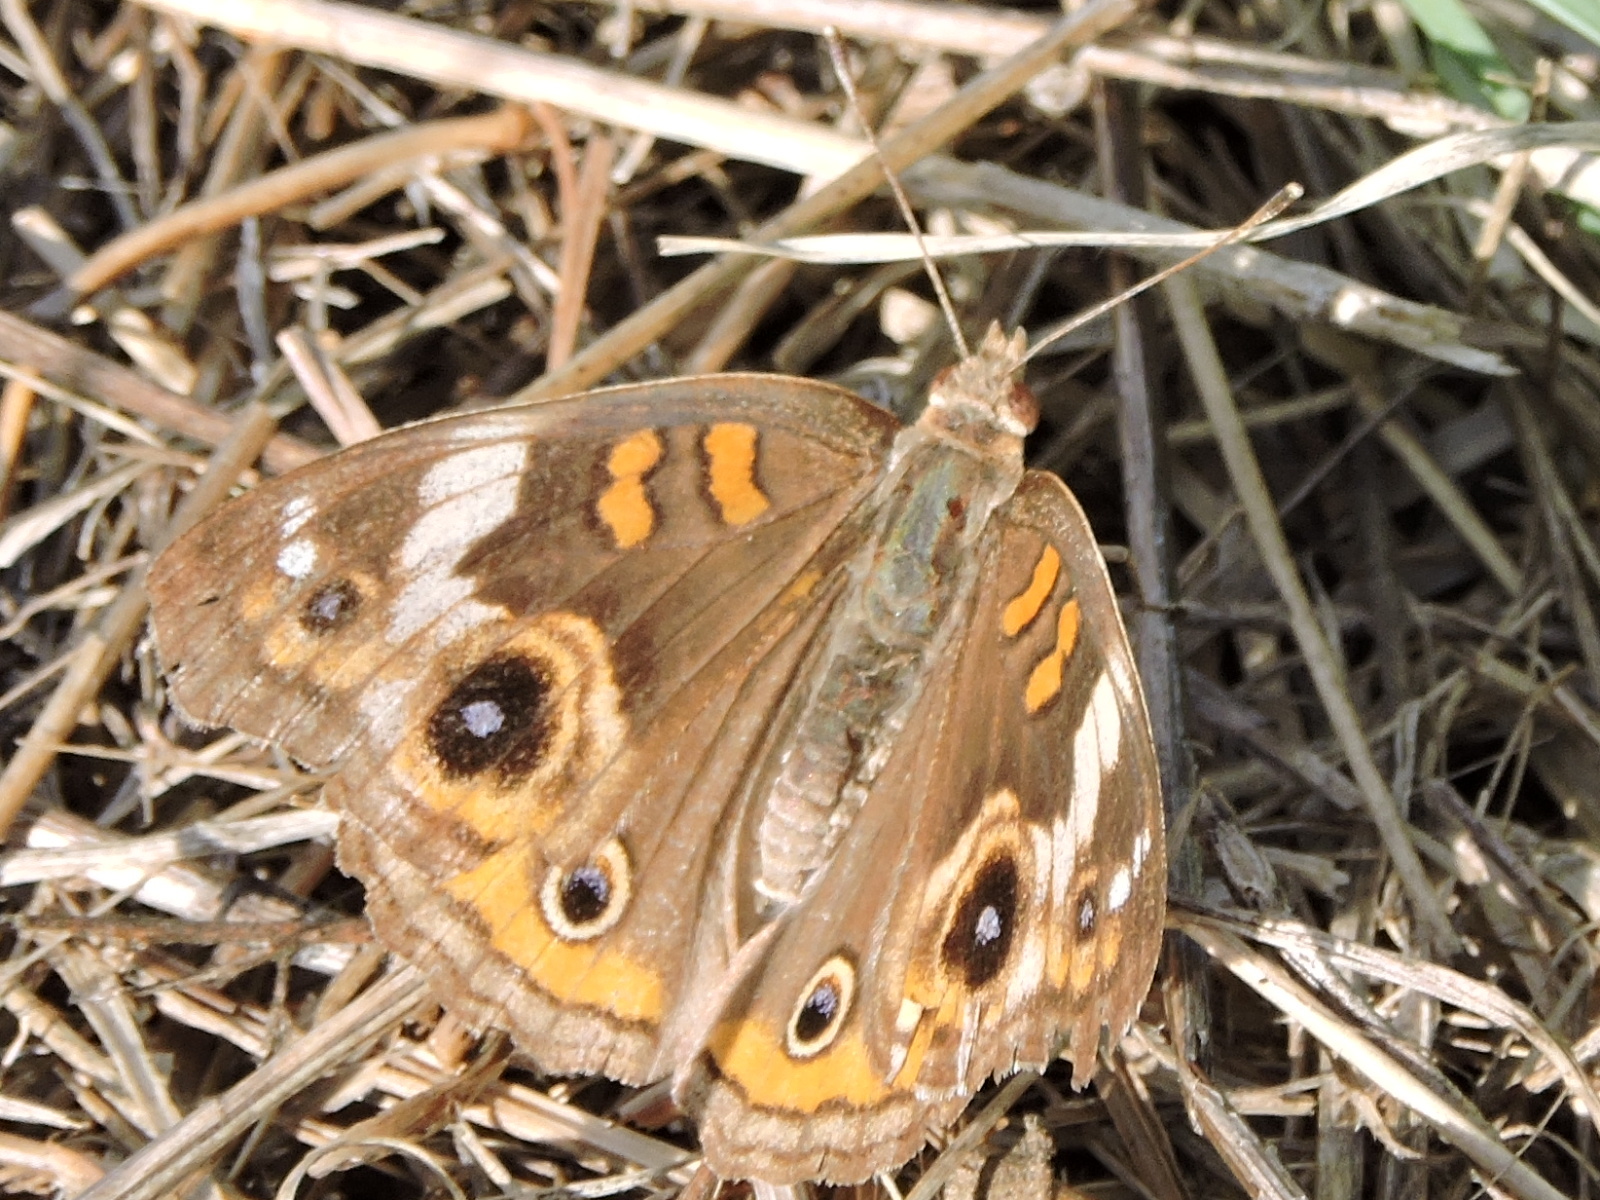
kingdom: Animalia
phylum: Arthropoda
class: Insecta
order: Lepidoptera
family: Nymphalidae
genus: Junonia
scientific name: Junonia coenia
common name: Common buckeye
